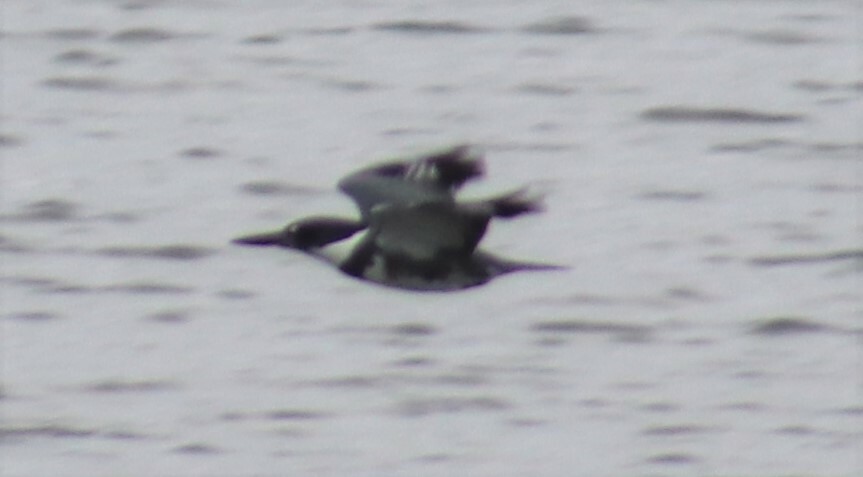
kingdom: Animalia
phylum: Chordata
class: Aves
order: Coraciiformes
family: Alcedinidae
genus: Megaceryle
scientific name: Megaceryle alcyon
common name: Belted kingfisher
